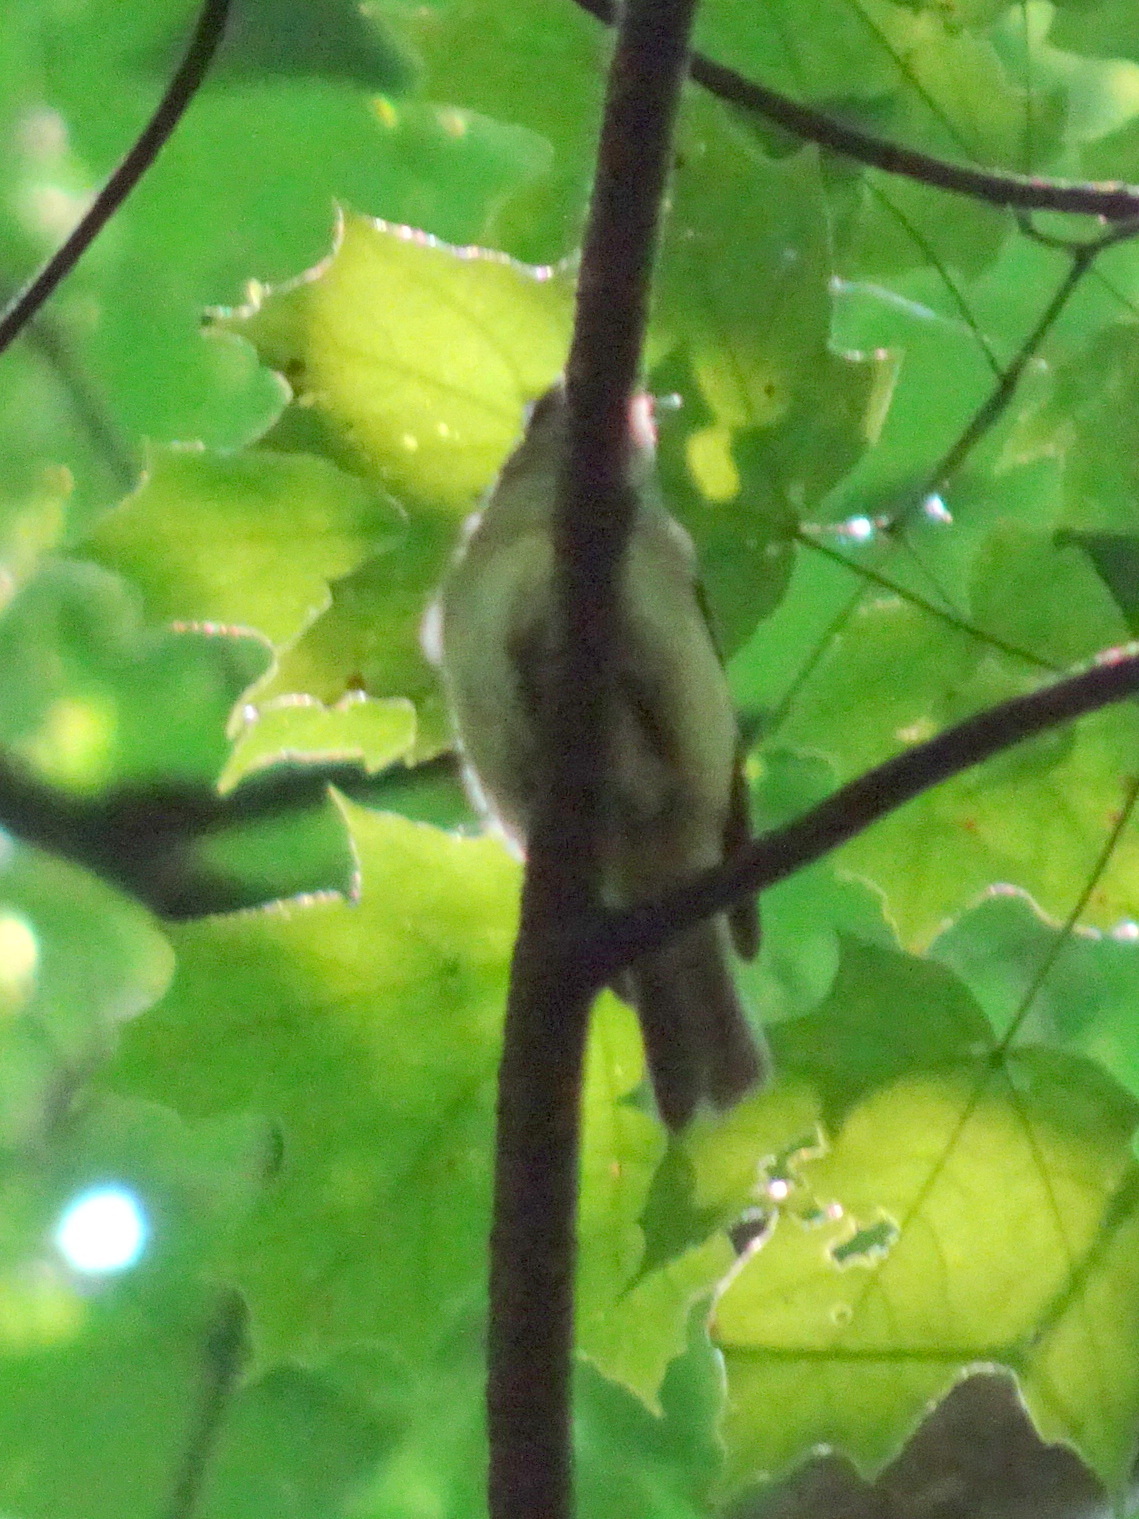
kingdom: Animalia
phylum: Chordata
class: Aves
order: Passeriformes
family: Tyrannidae
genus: Empidonax
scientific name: Empidonax virescens
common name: Acadian flycatcher
